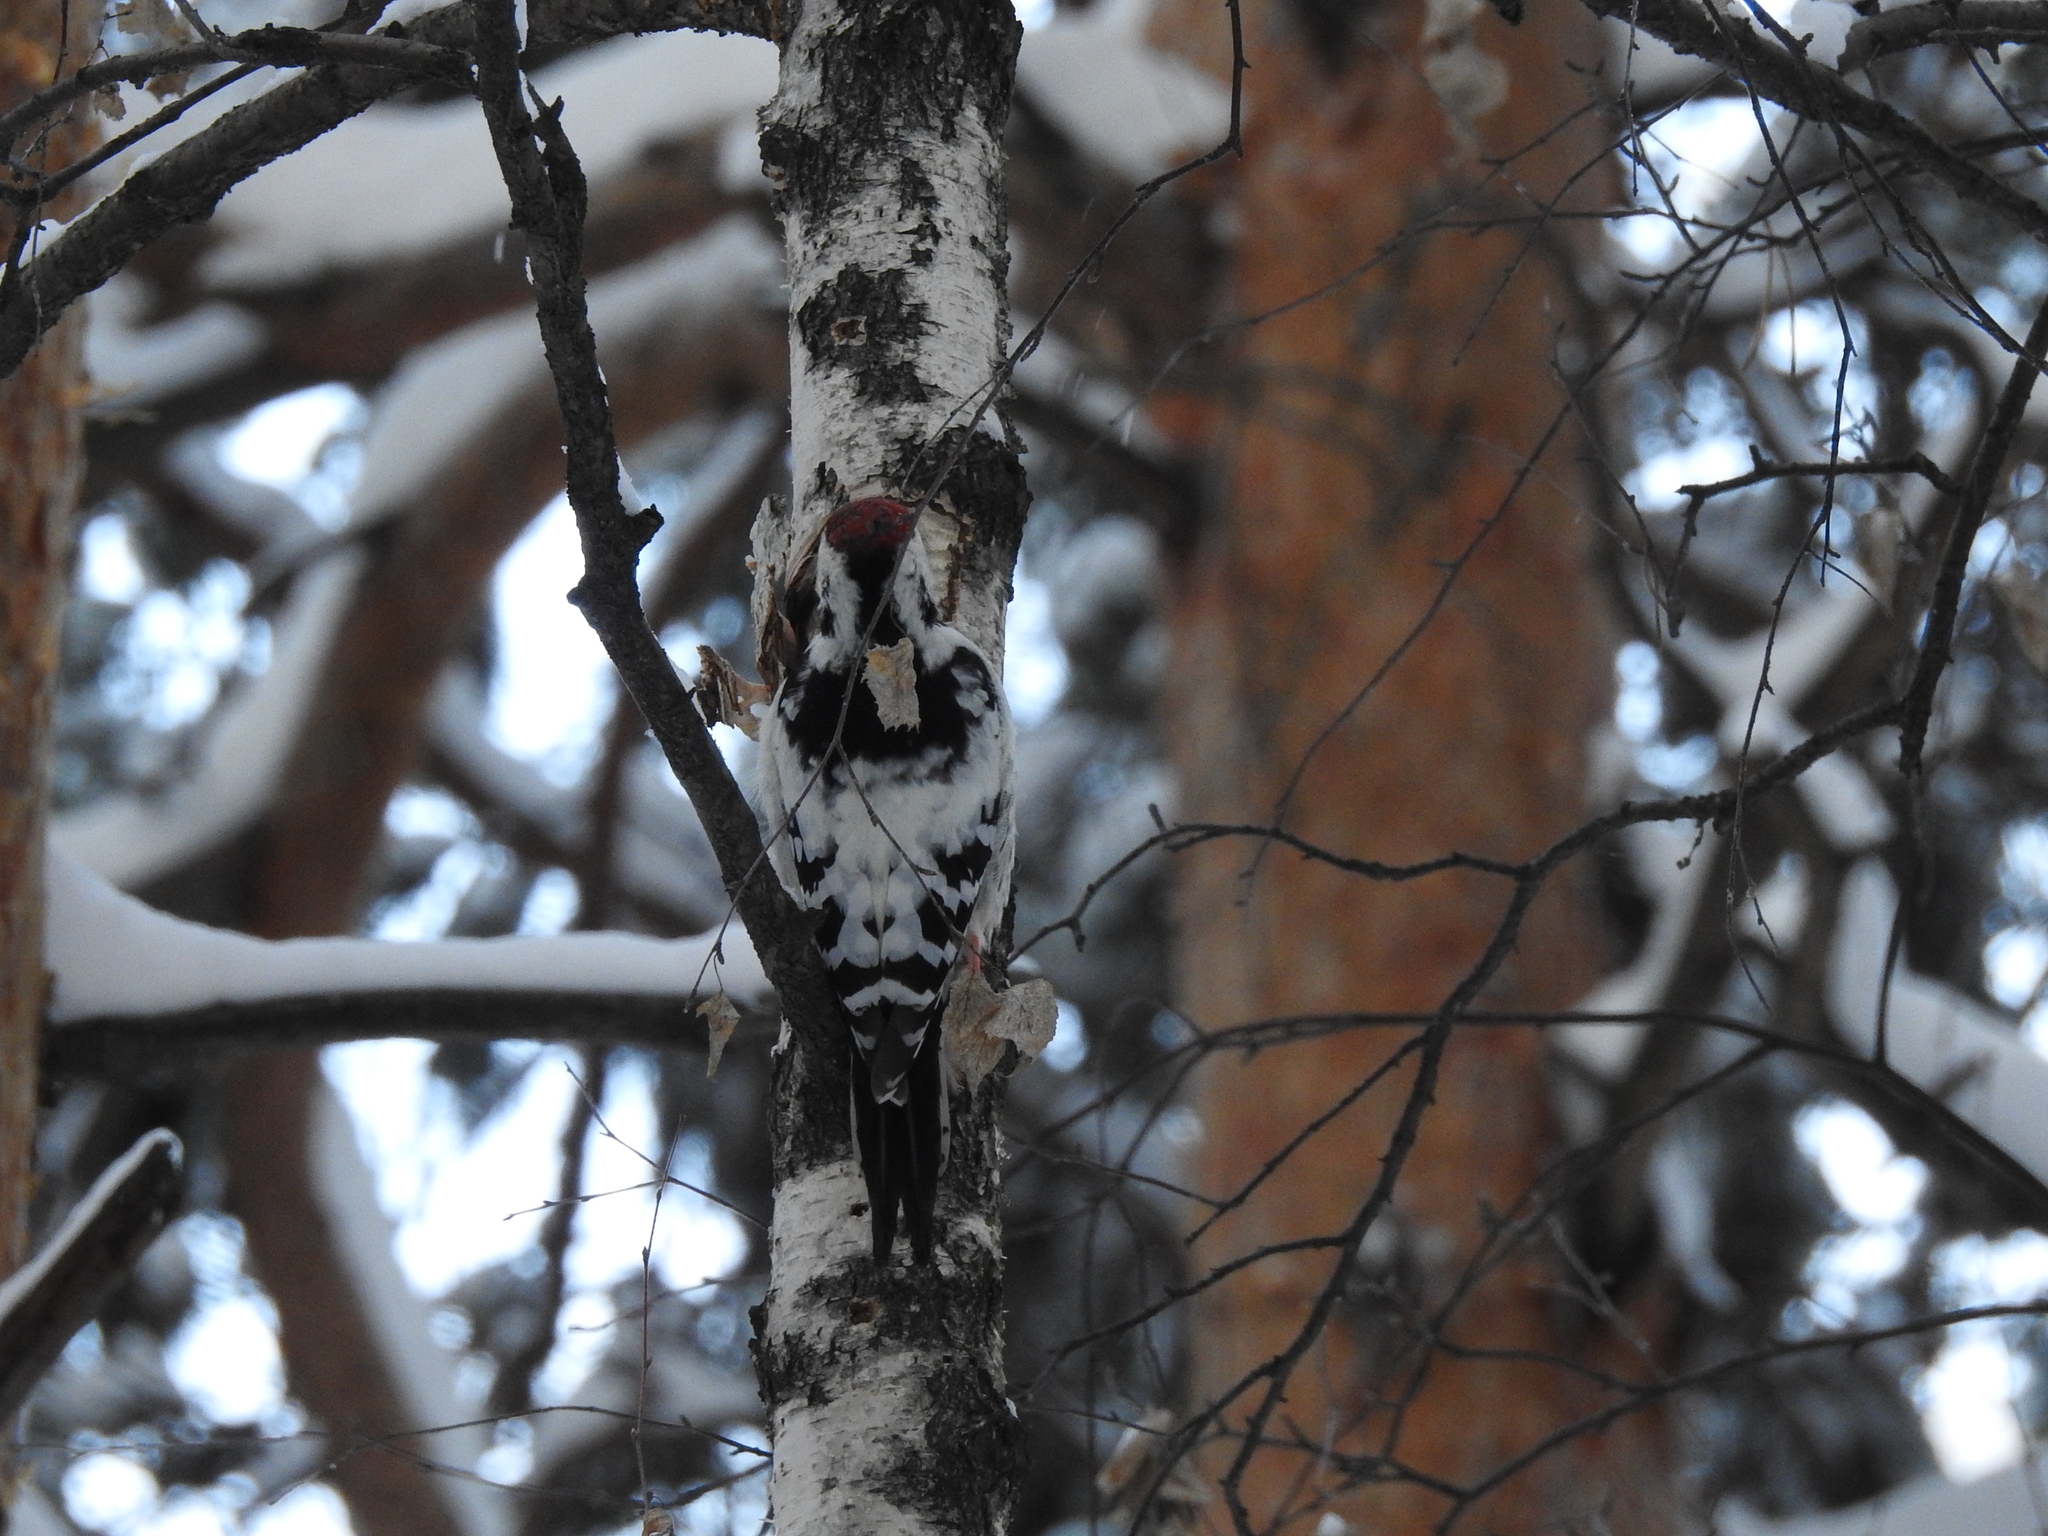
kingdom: Animalia
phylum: Chordata
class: Aves
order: Piciformes
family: Picidae
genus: Dendrocopos
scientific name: Dendrocopos leucotos
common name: White-backed woodpecker
